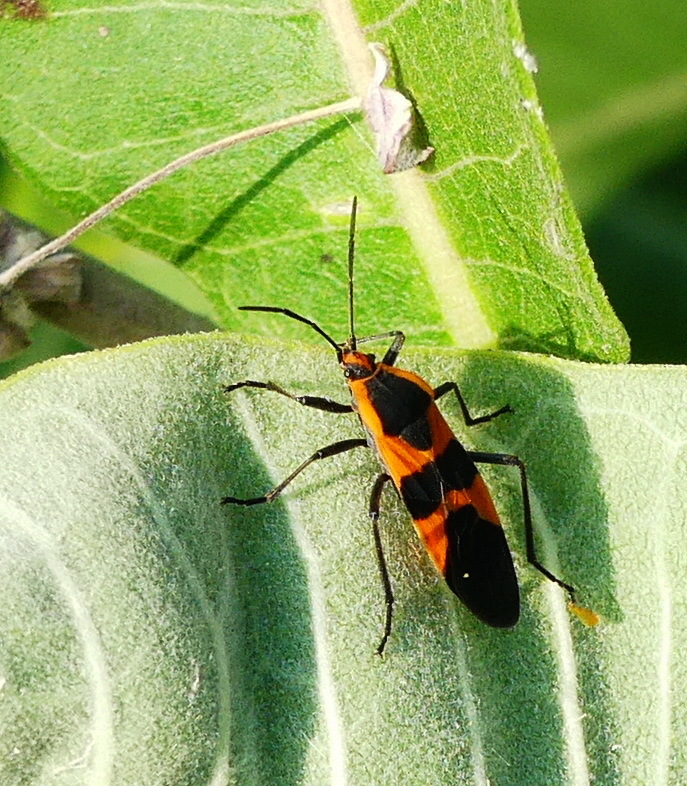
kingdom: Animalia
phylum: Arthropoda
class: Insecta
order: Hemiptera
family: Lygaeidae
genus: Oncopeltus
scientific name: Oncopeltus fasciatus
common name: Large milkweed bug
